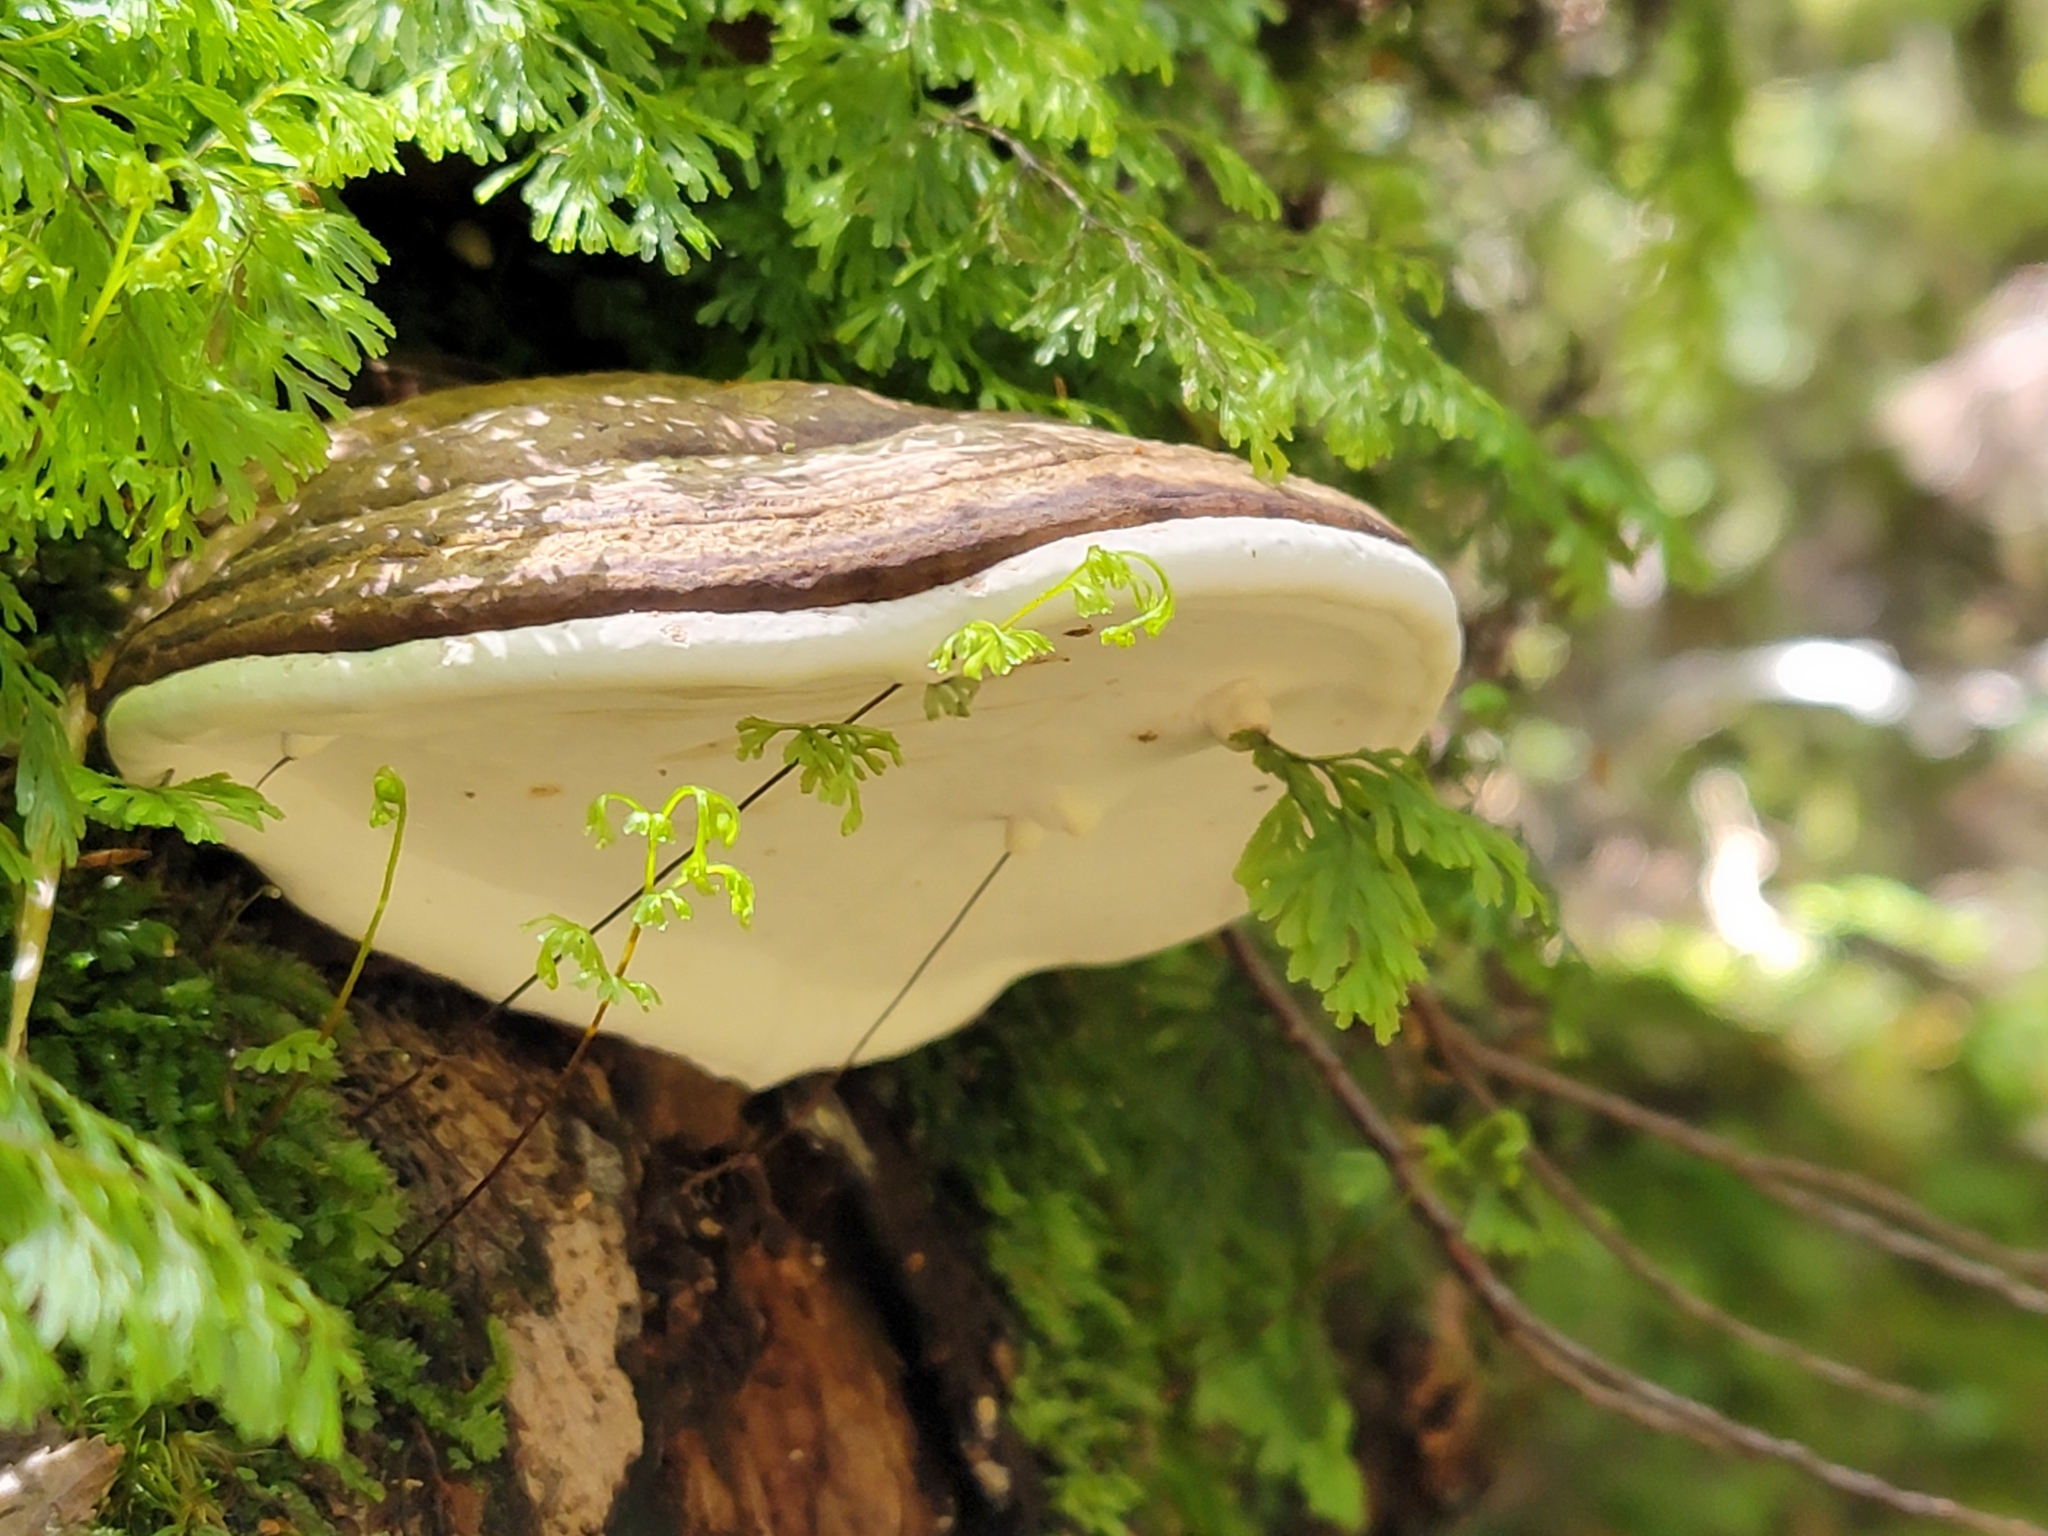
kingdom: Fungi
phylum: Basidiomycota
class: Agaricomycetes
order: Polyporales
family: Fomitopsidaceae
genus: Pilatoporus
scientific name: Pilatoporus hemitephrus
